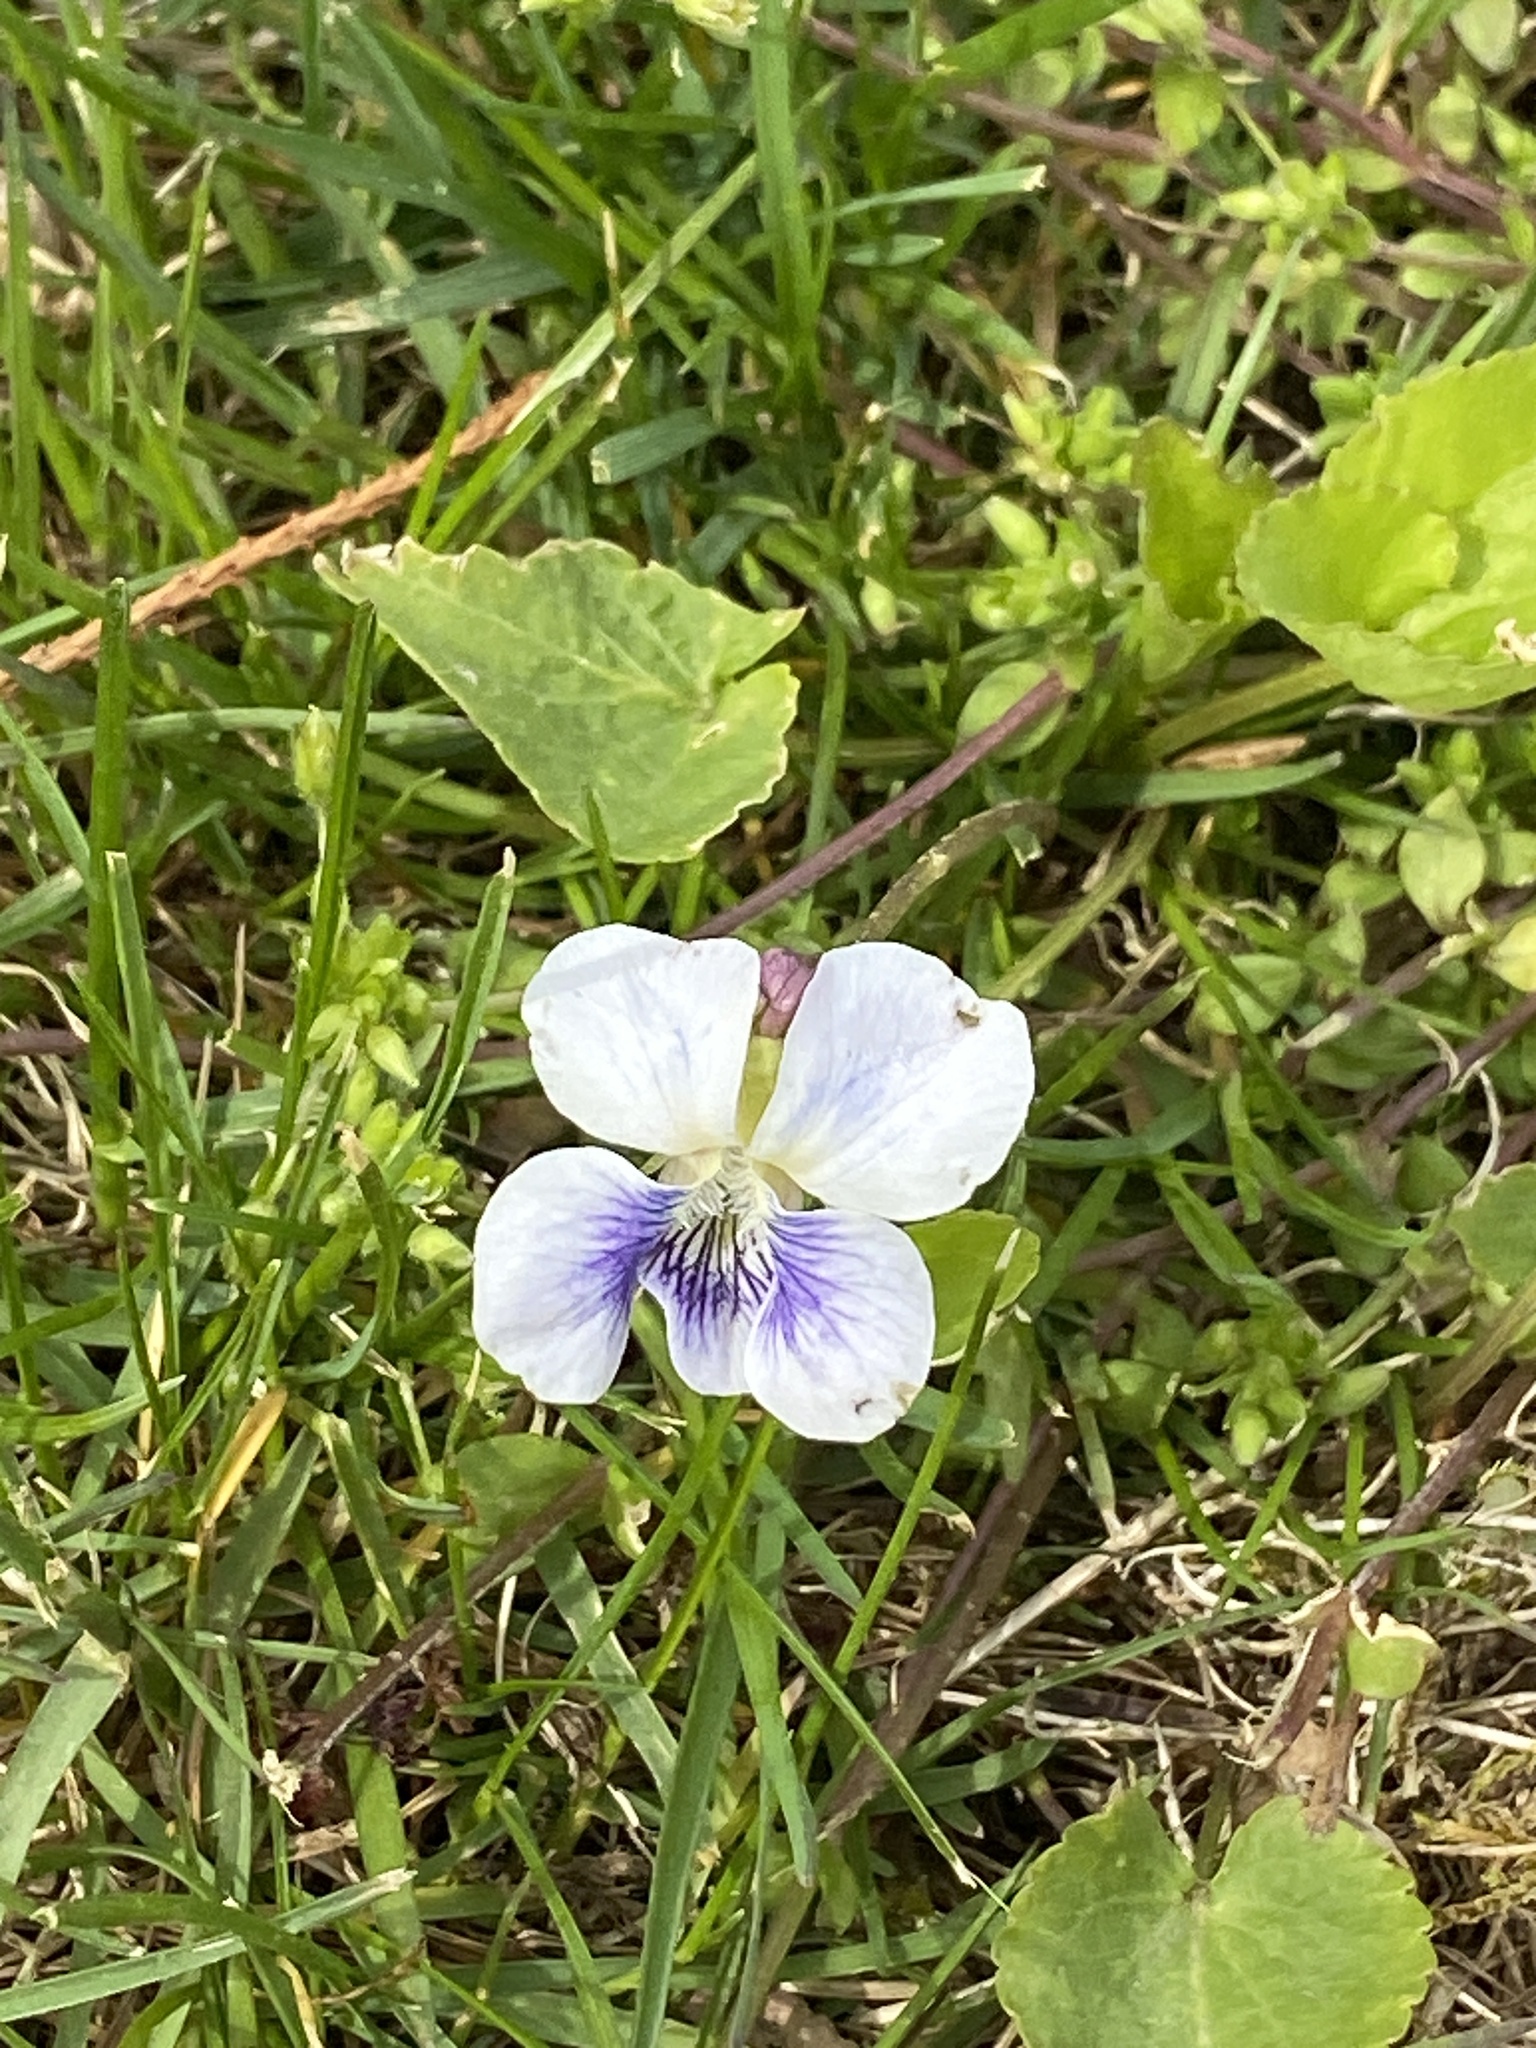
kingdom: Plantae
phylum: Tracheophyta
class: Magnoliopsida
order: Malpighiales
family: Violaceae
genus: Viola
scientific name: Viola sororia
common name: Dooryard violet
